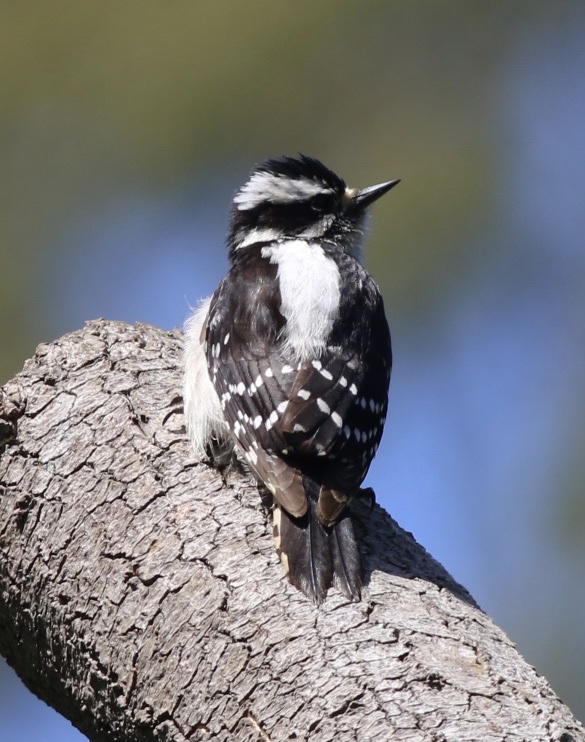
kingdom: Animalia
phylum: Chordata
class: Aves
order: Piciformes
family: Picidae
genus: Dryobates
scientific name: Dryobates pubescens
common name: Downy woodpecker
